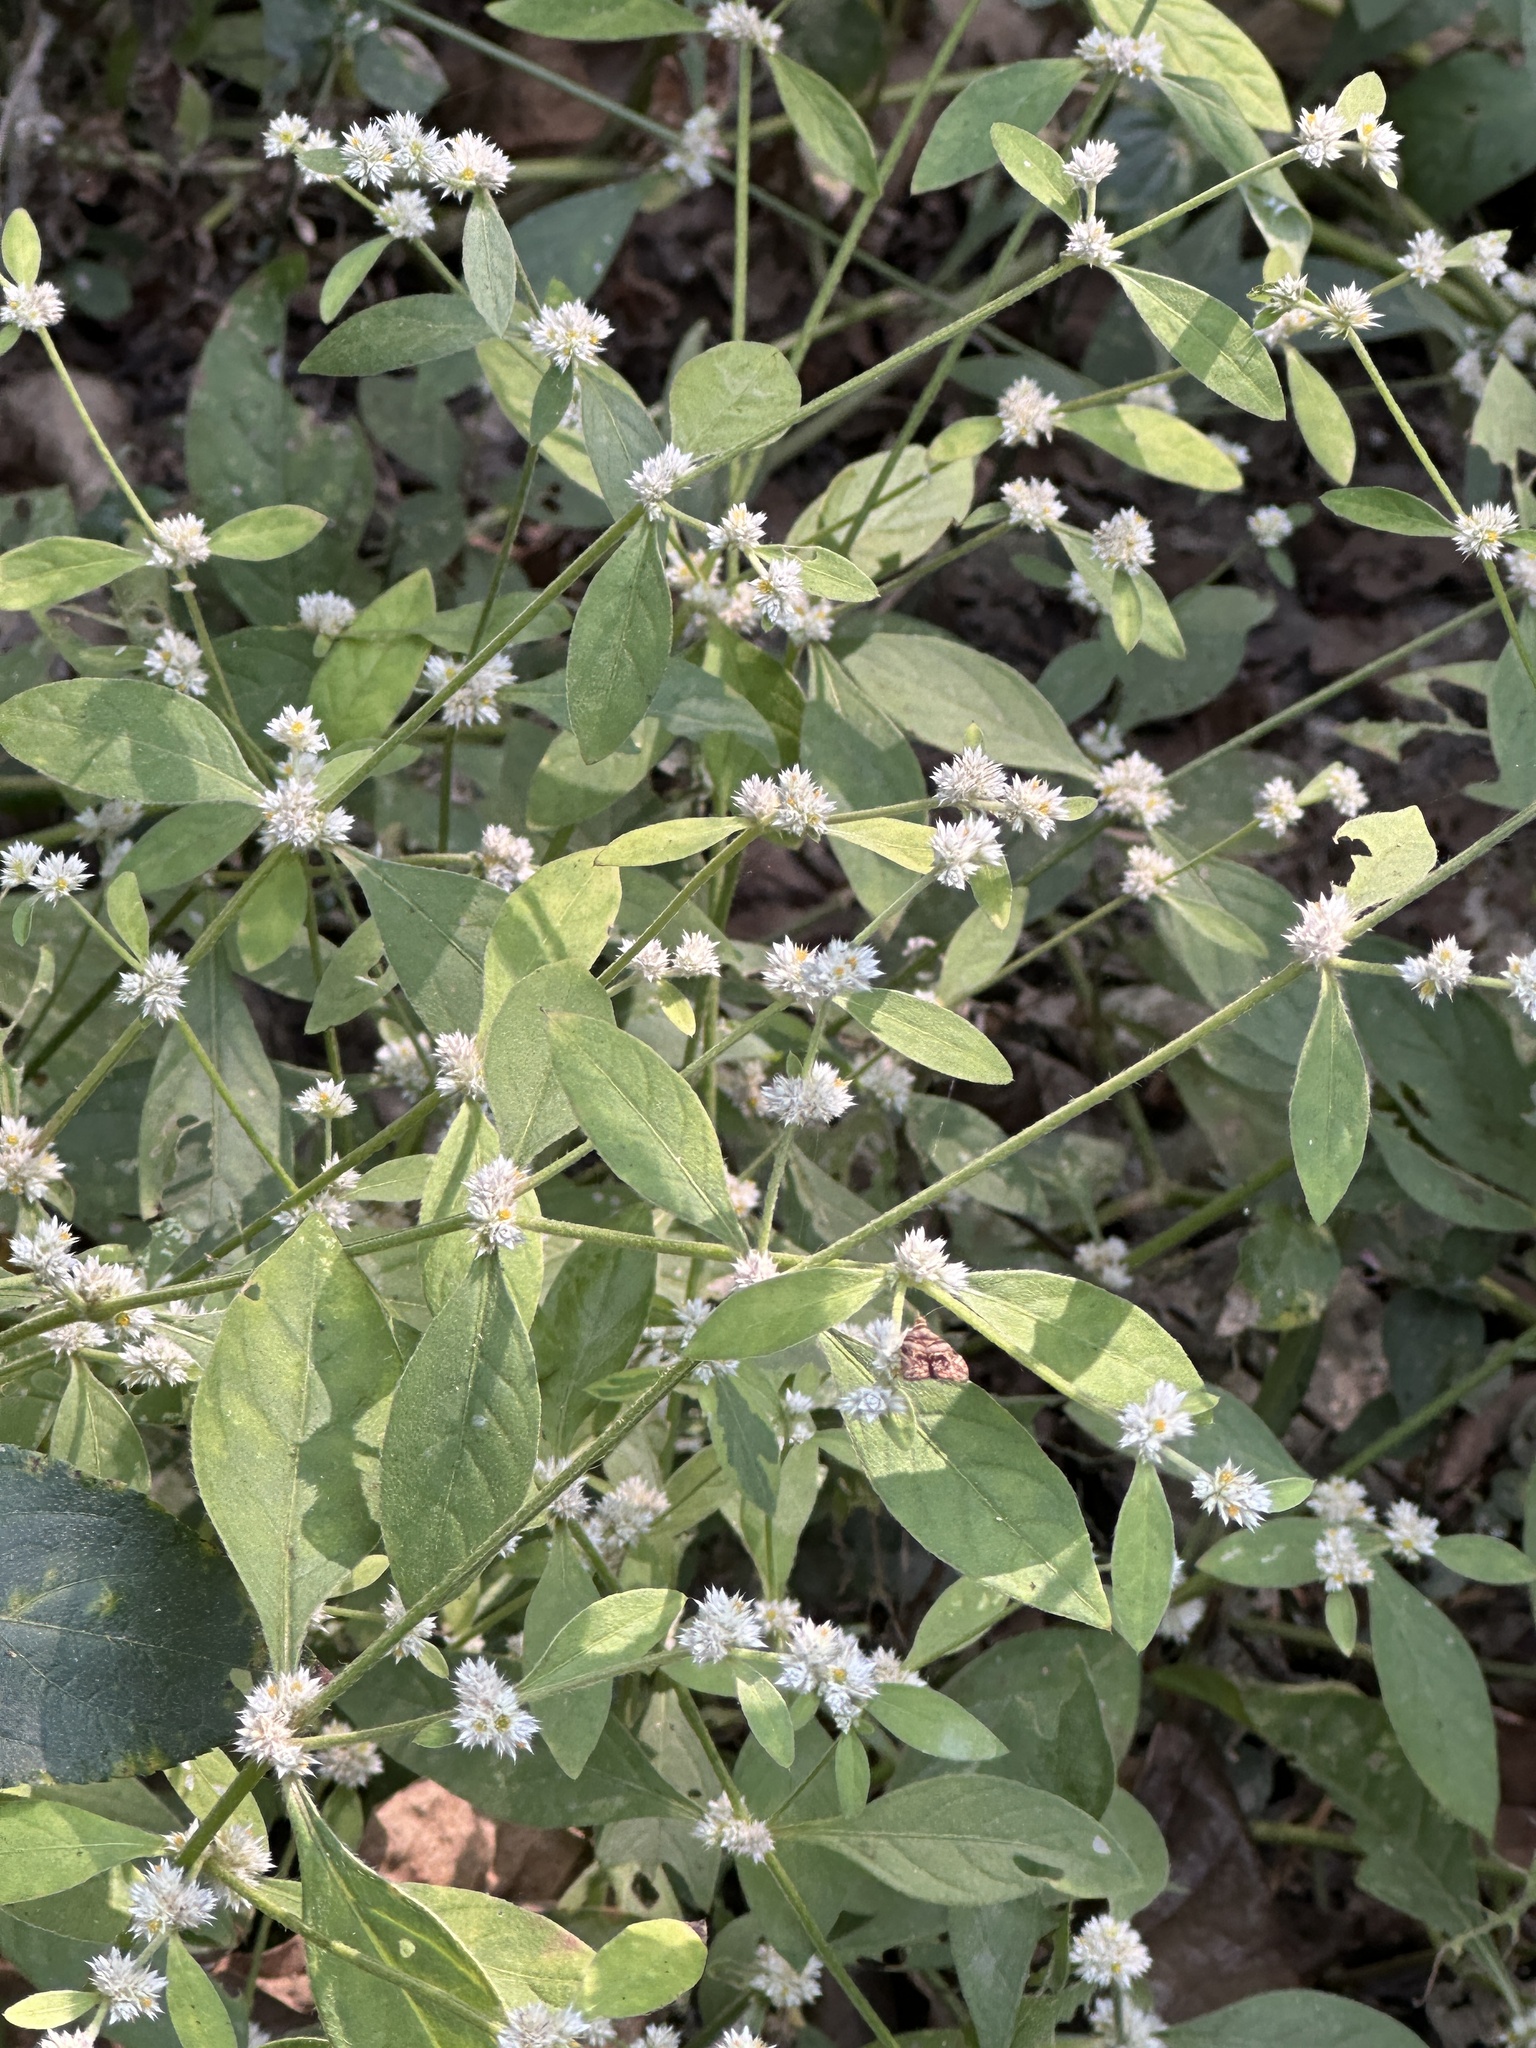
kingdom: Plantae
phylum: Tracheophyta
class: Magnoliopsida
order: Caryophyllales
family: Amaranthaceae
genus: Alternanthera
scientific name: Alternanthera ficoidea
